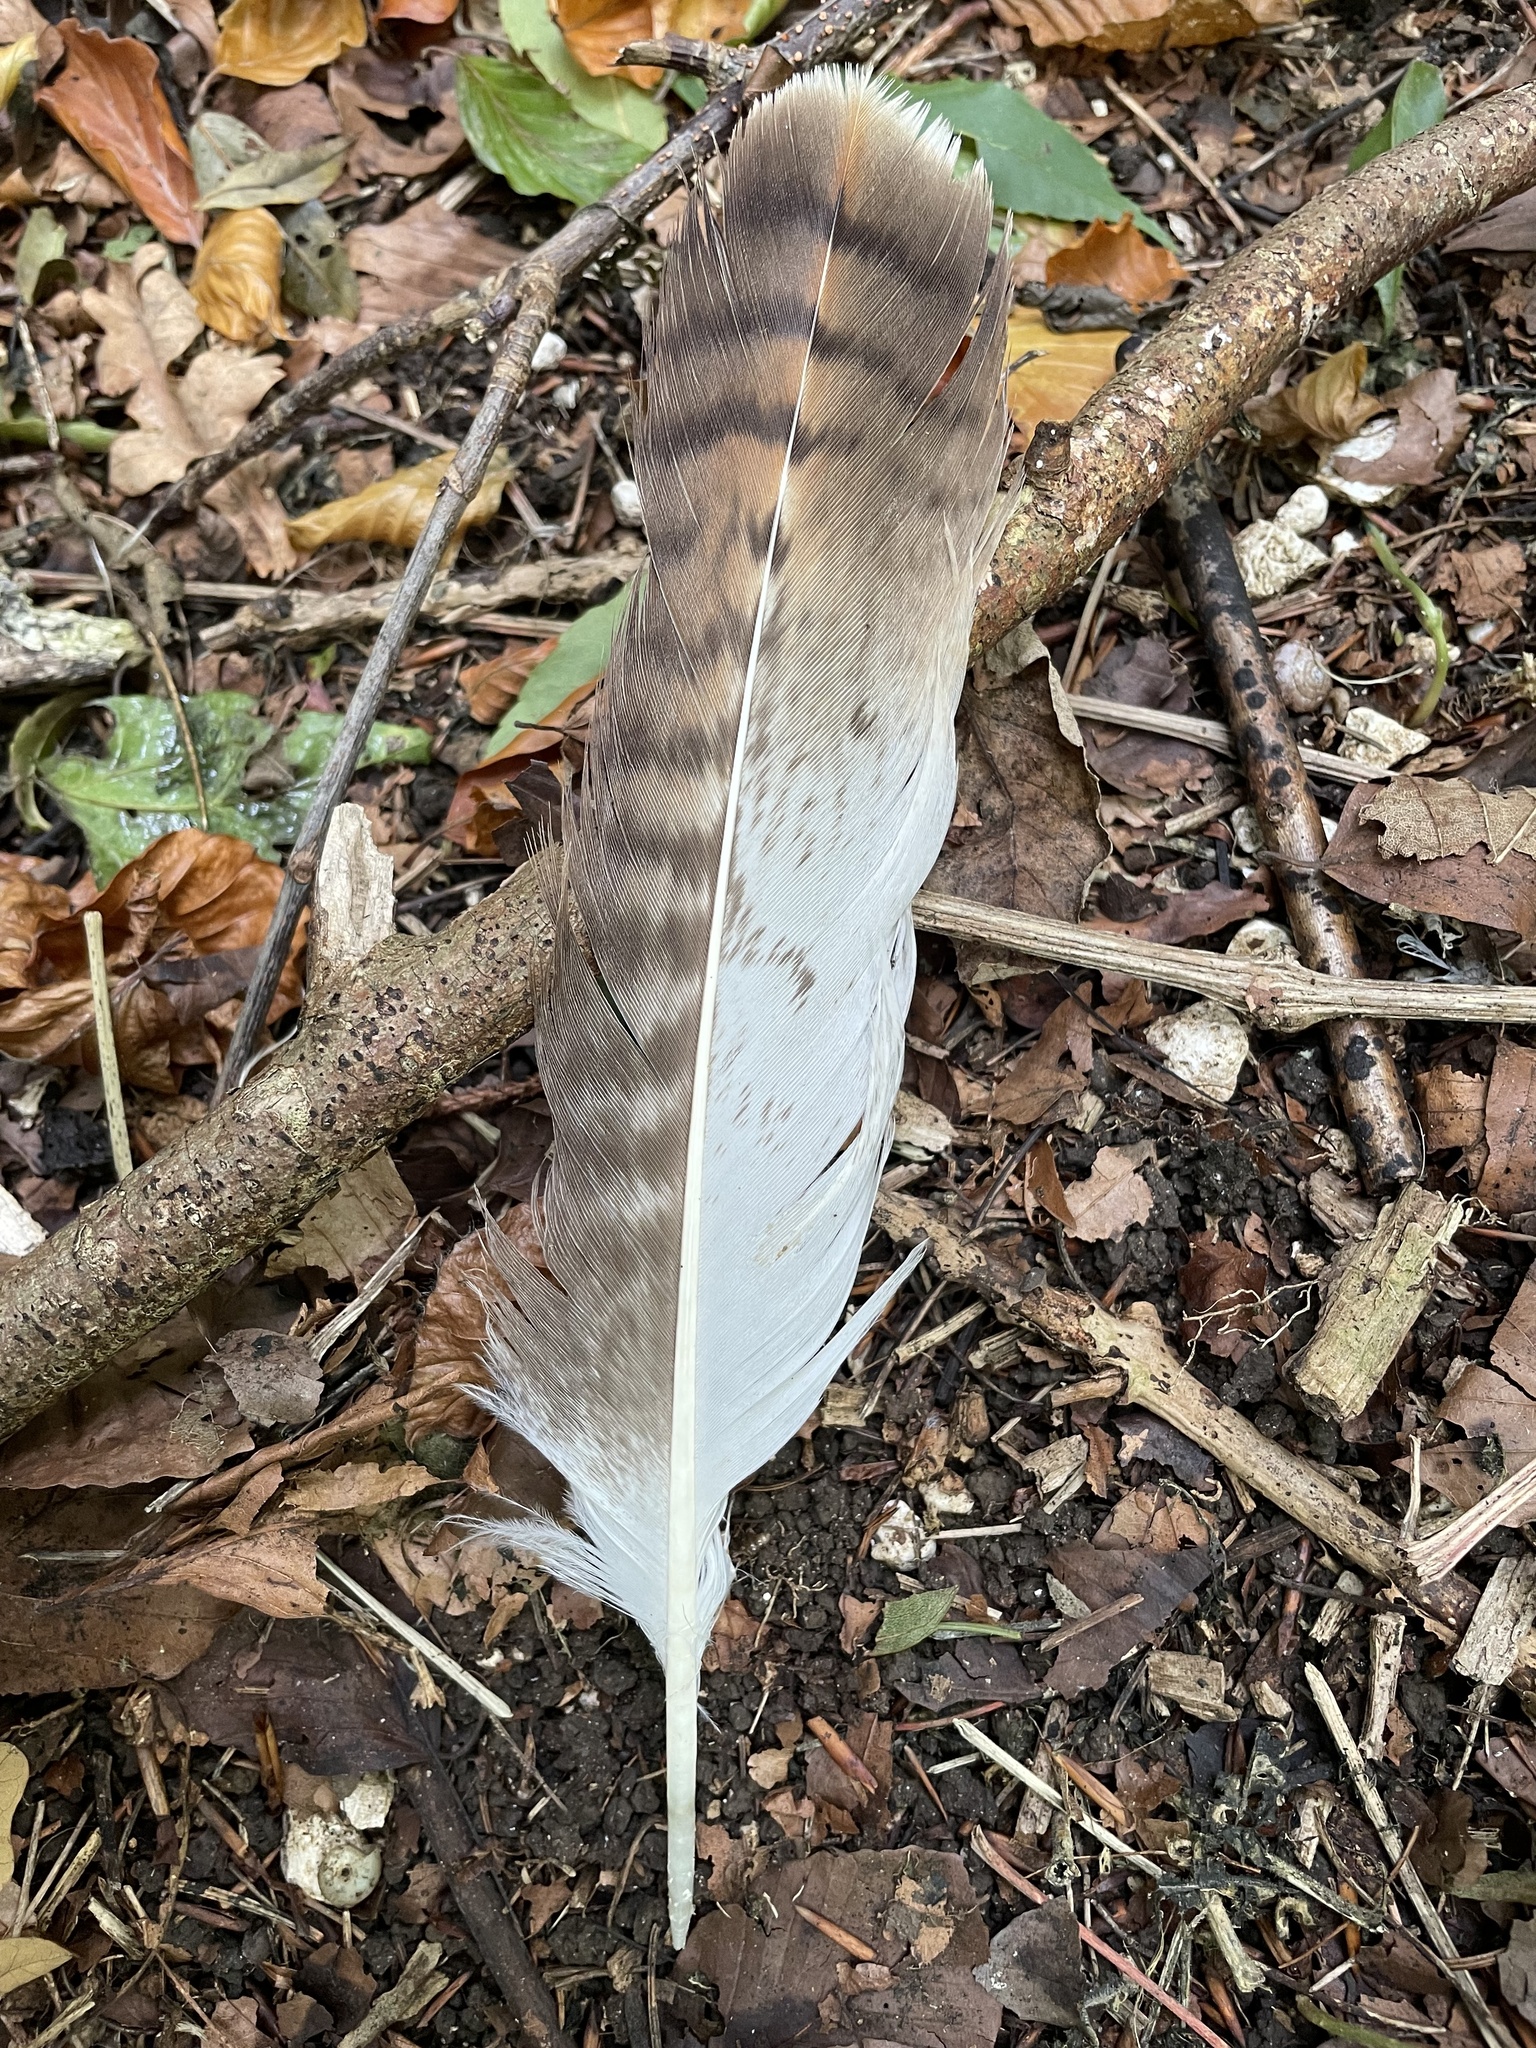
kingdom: Animalia
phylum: Chordata
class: Aves
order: Accipitriformes
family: Accipitridae
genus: Buteo
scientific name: Buteo buteo
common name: Common buzzard
